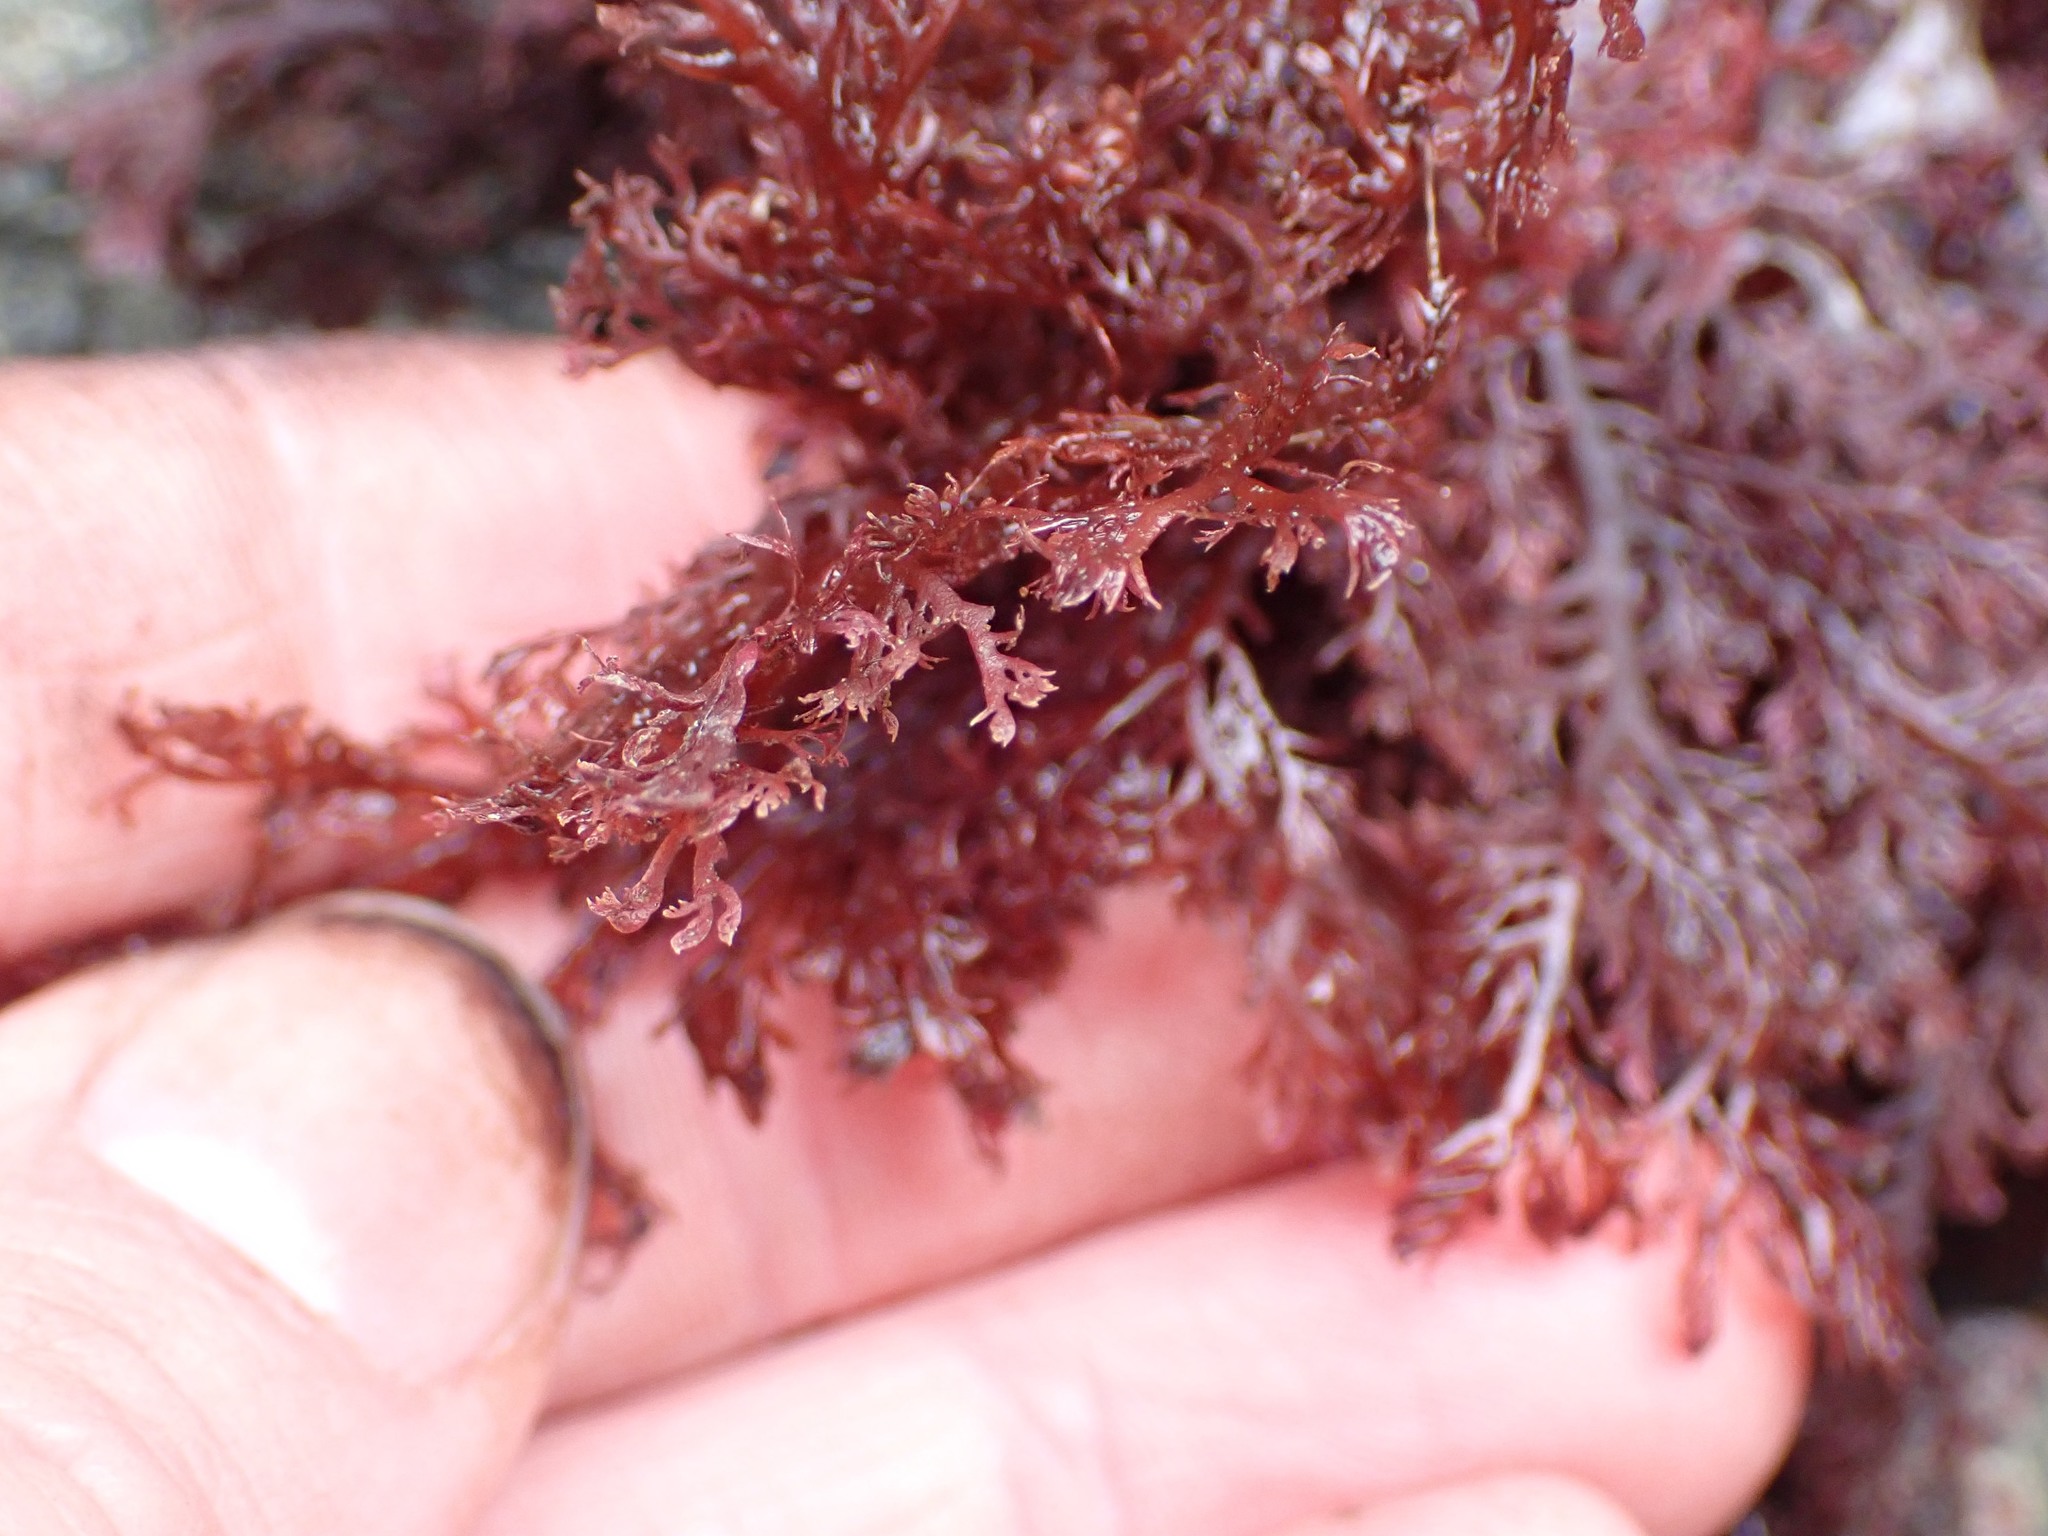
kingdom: Plantae
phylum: Rhodophyta
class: Florideophyceae
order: Plocamiales
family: Plocamiaceae
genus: Plocamium
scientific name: Plocamium cartilagineum
